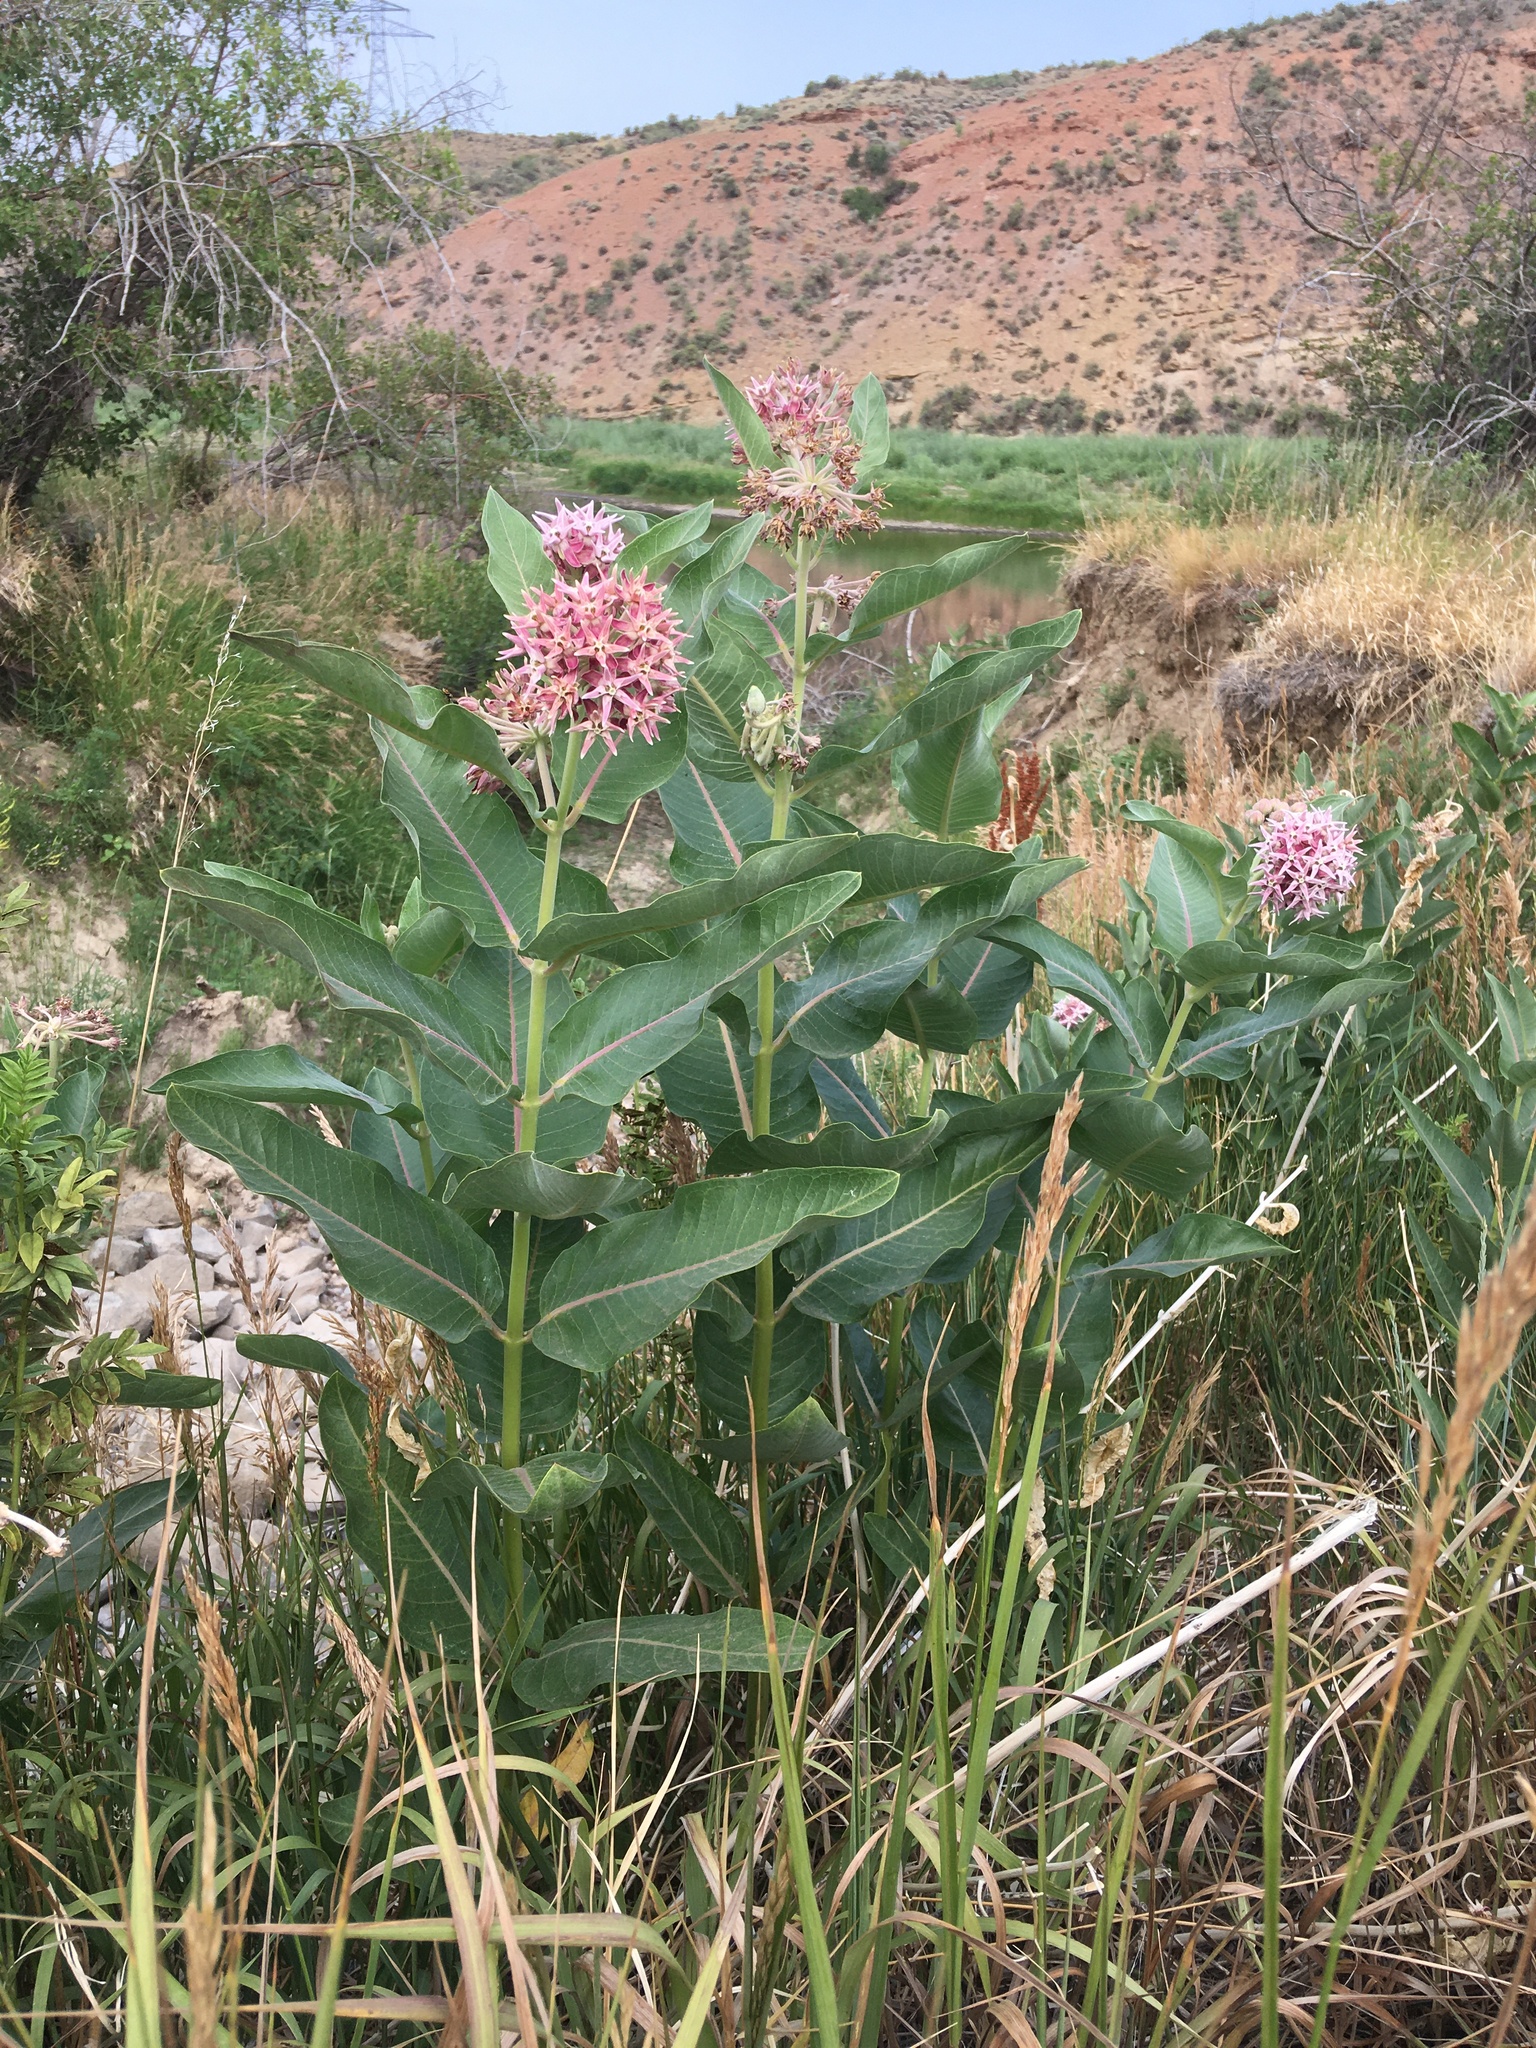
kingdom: Plantae
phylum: Tracheophyta
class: Magnoliopsida
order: Gentianales
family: Apocynaceae
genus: Asclepias
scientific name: Asclepias speciosa
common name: Showy milkweed
